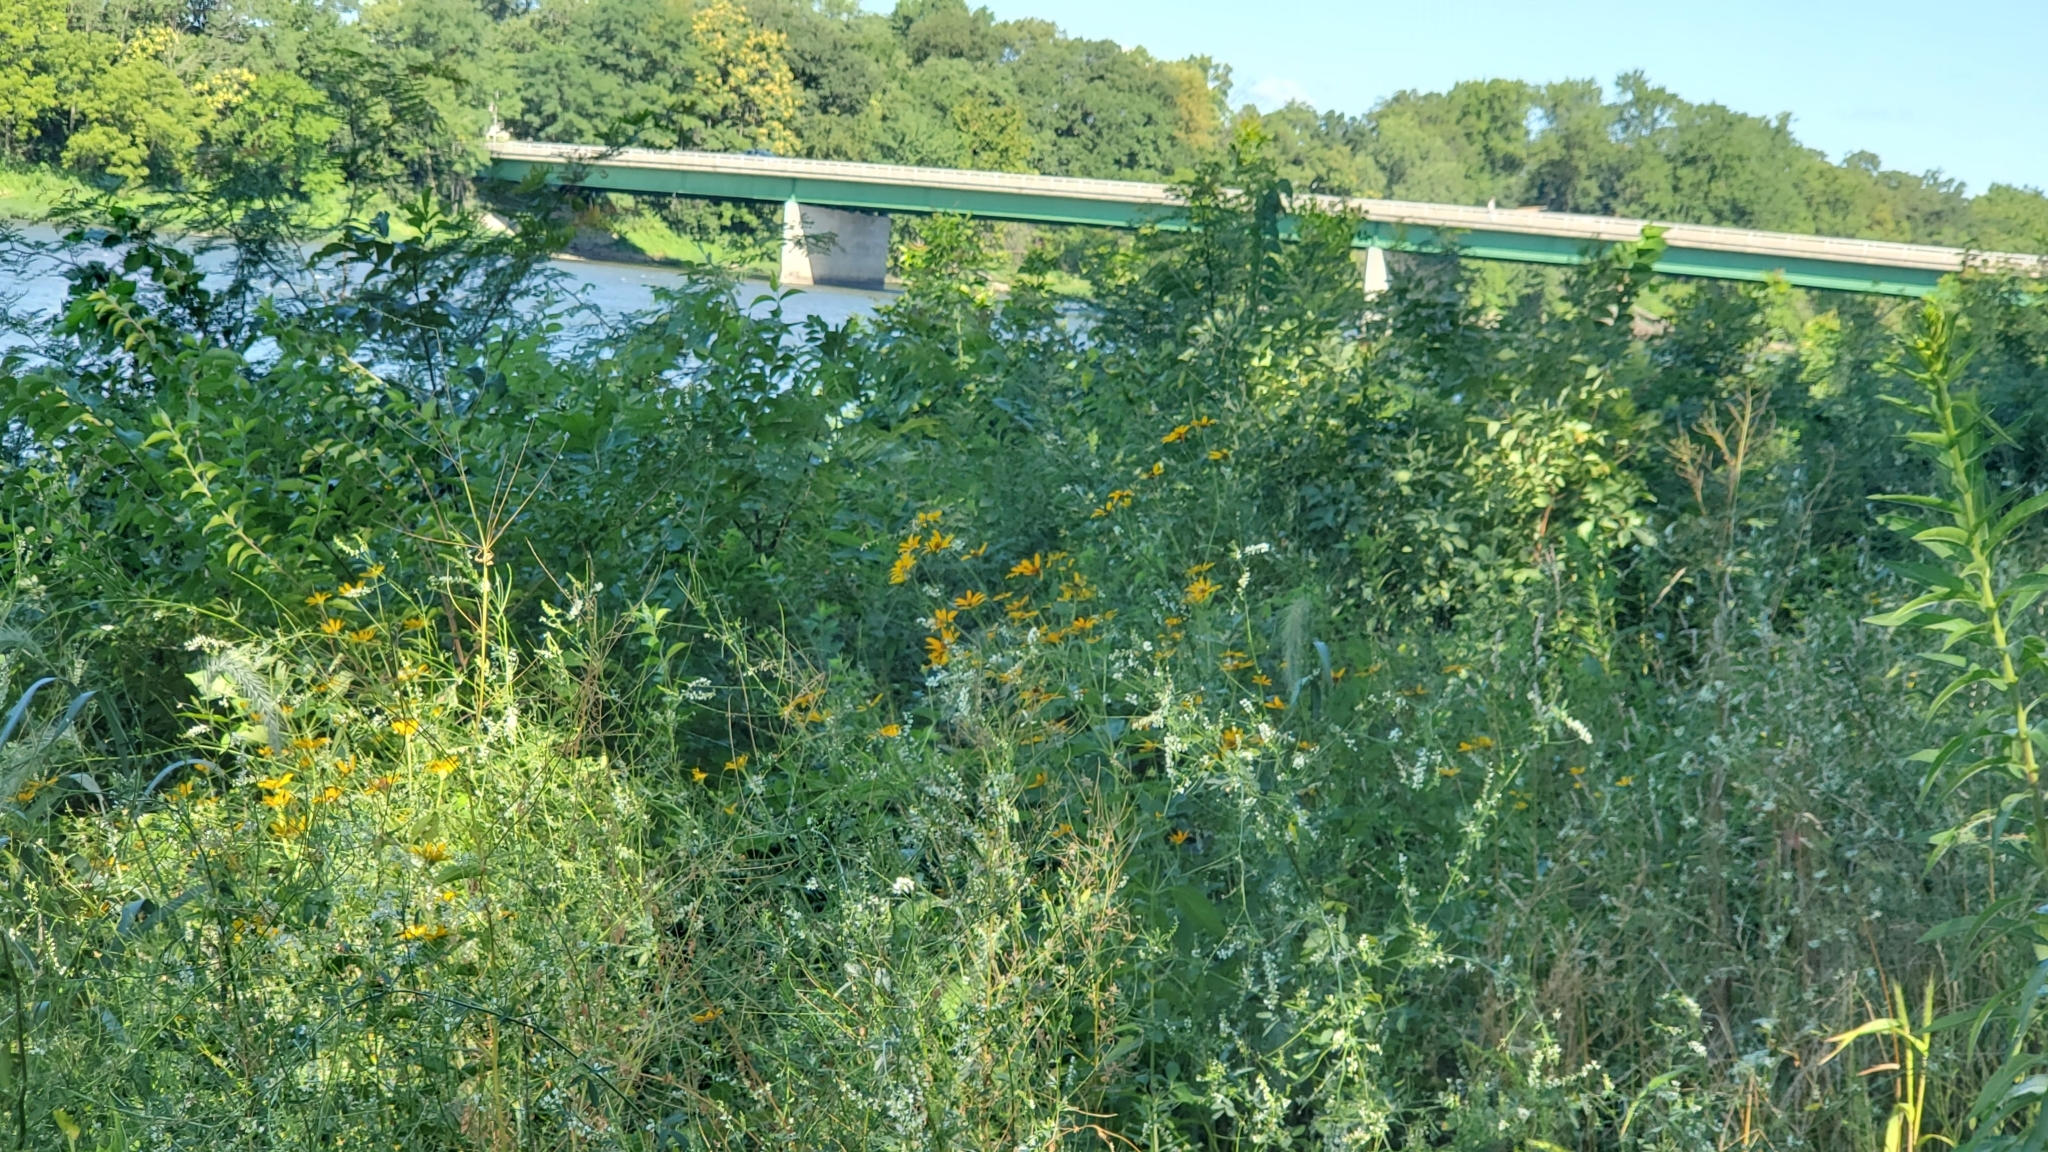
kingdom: Plantae
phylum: Tracheophyta
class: Magnoliopsida
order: Asterales
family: Asteraceae
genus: Heliopsis
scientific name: Heliopsis helianthoides
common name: False sunflower
